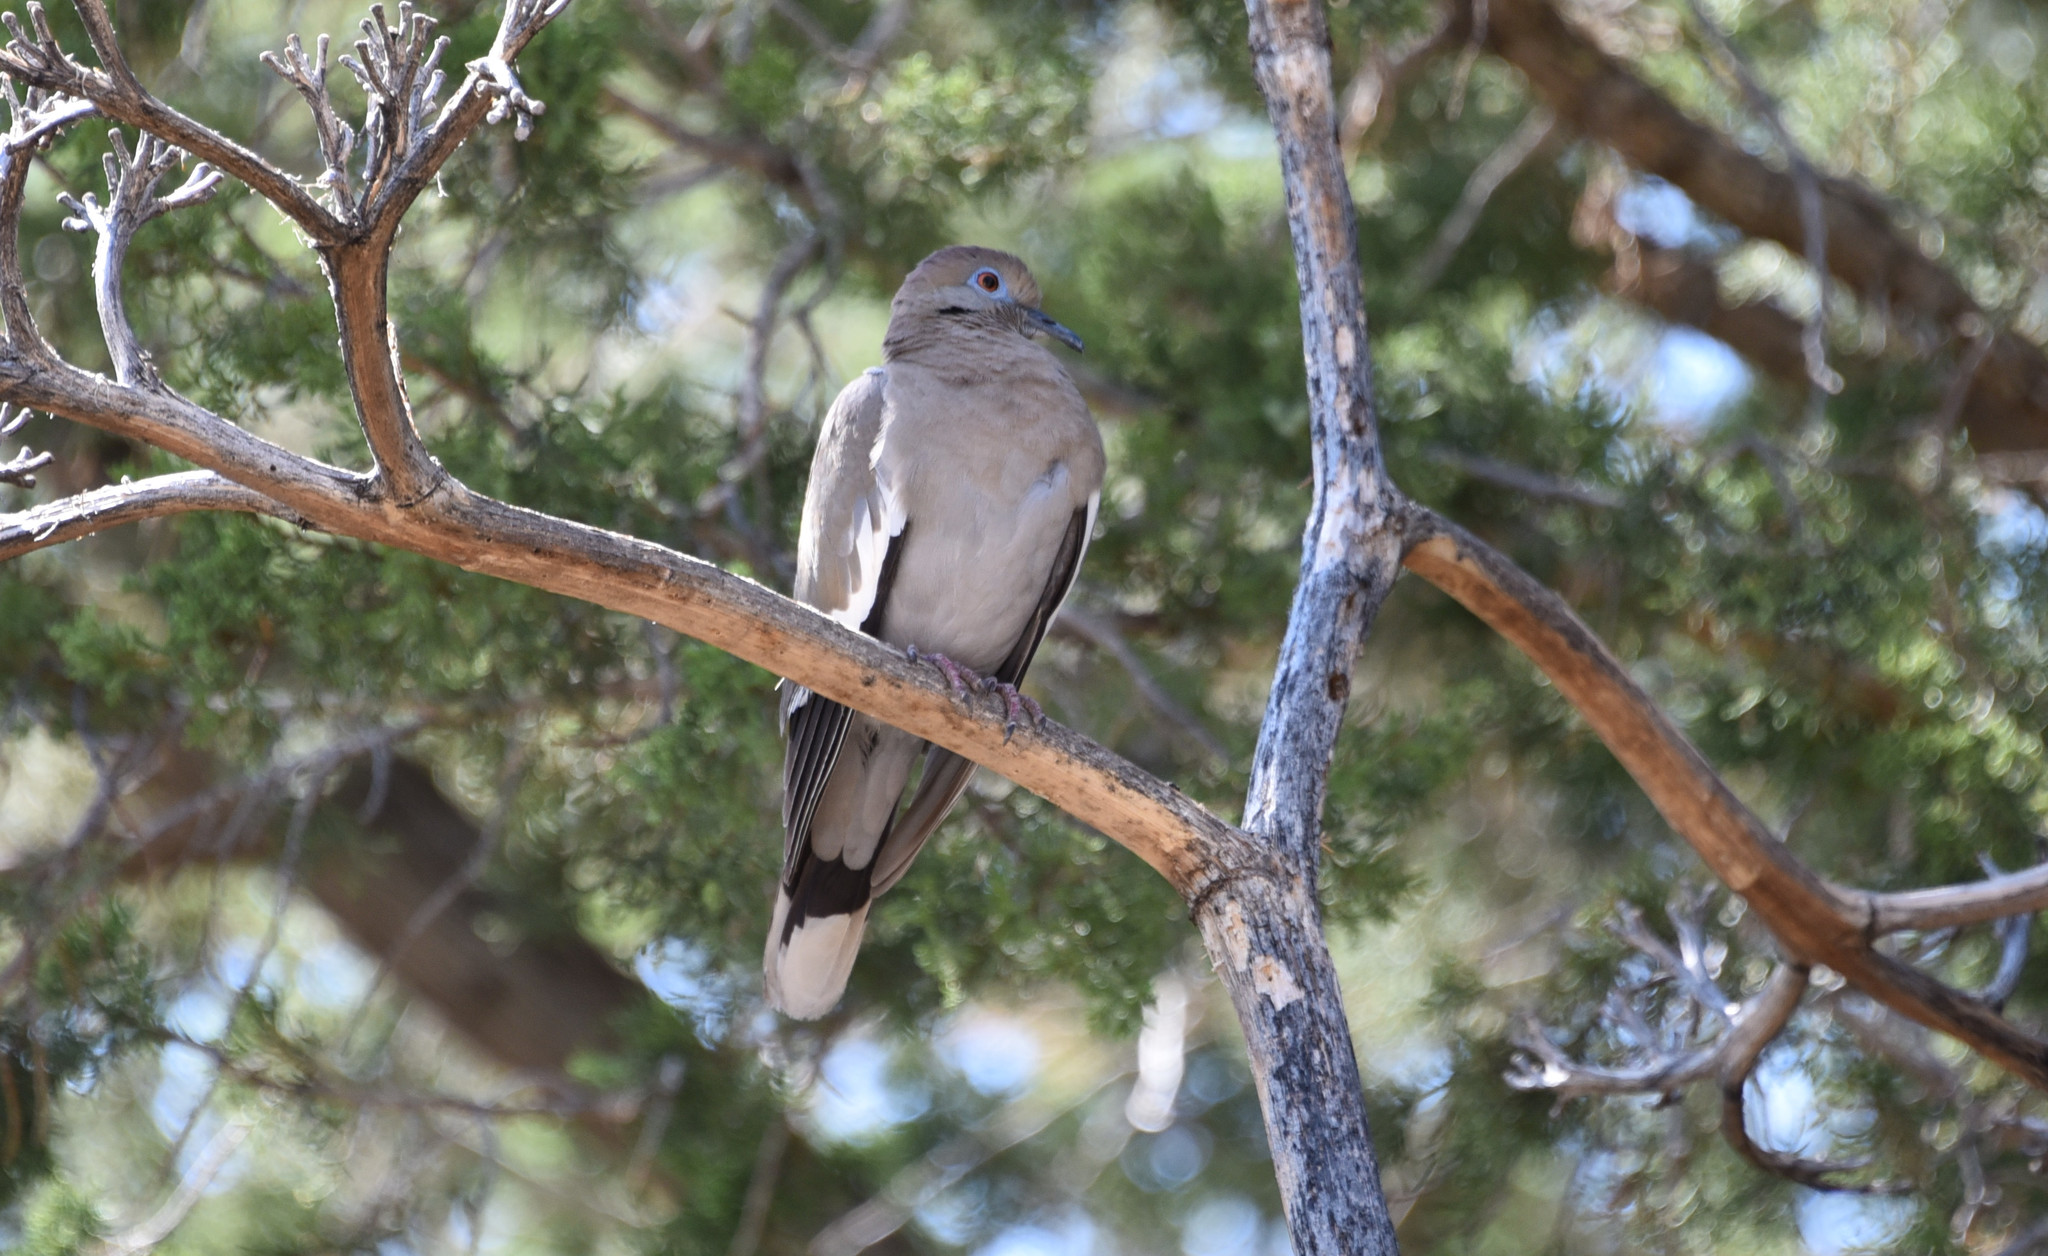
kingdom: Animalia
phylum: Chordata
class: Aves
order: Columbiformes
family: Columbidae
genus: Zenaida
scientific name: Zenaida asiatica
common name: White-winged dove
